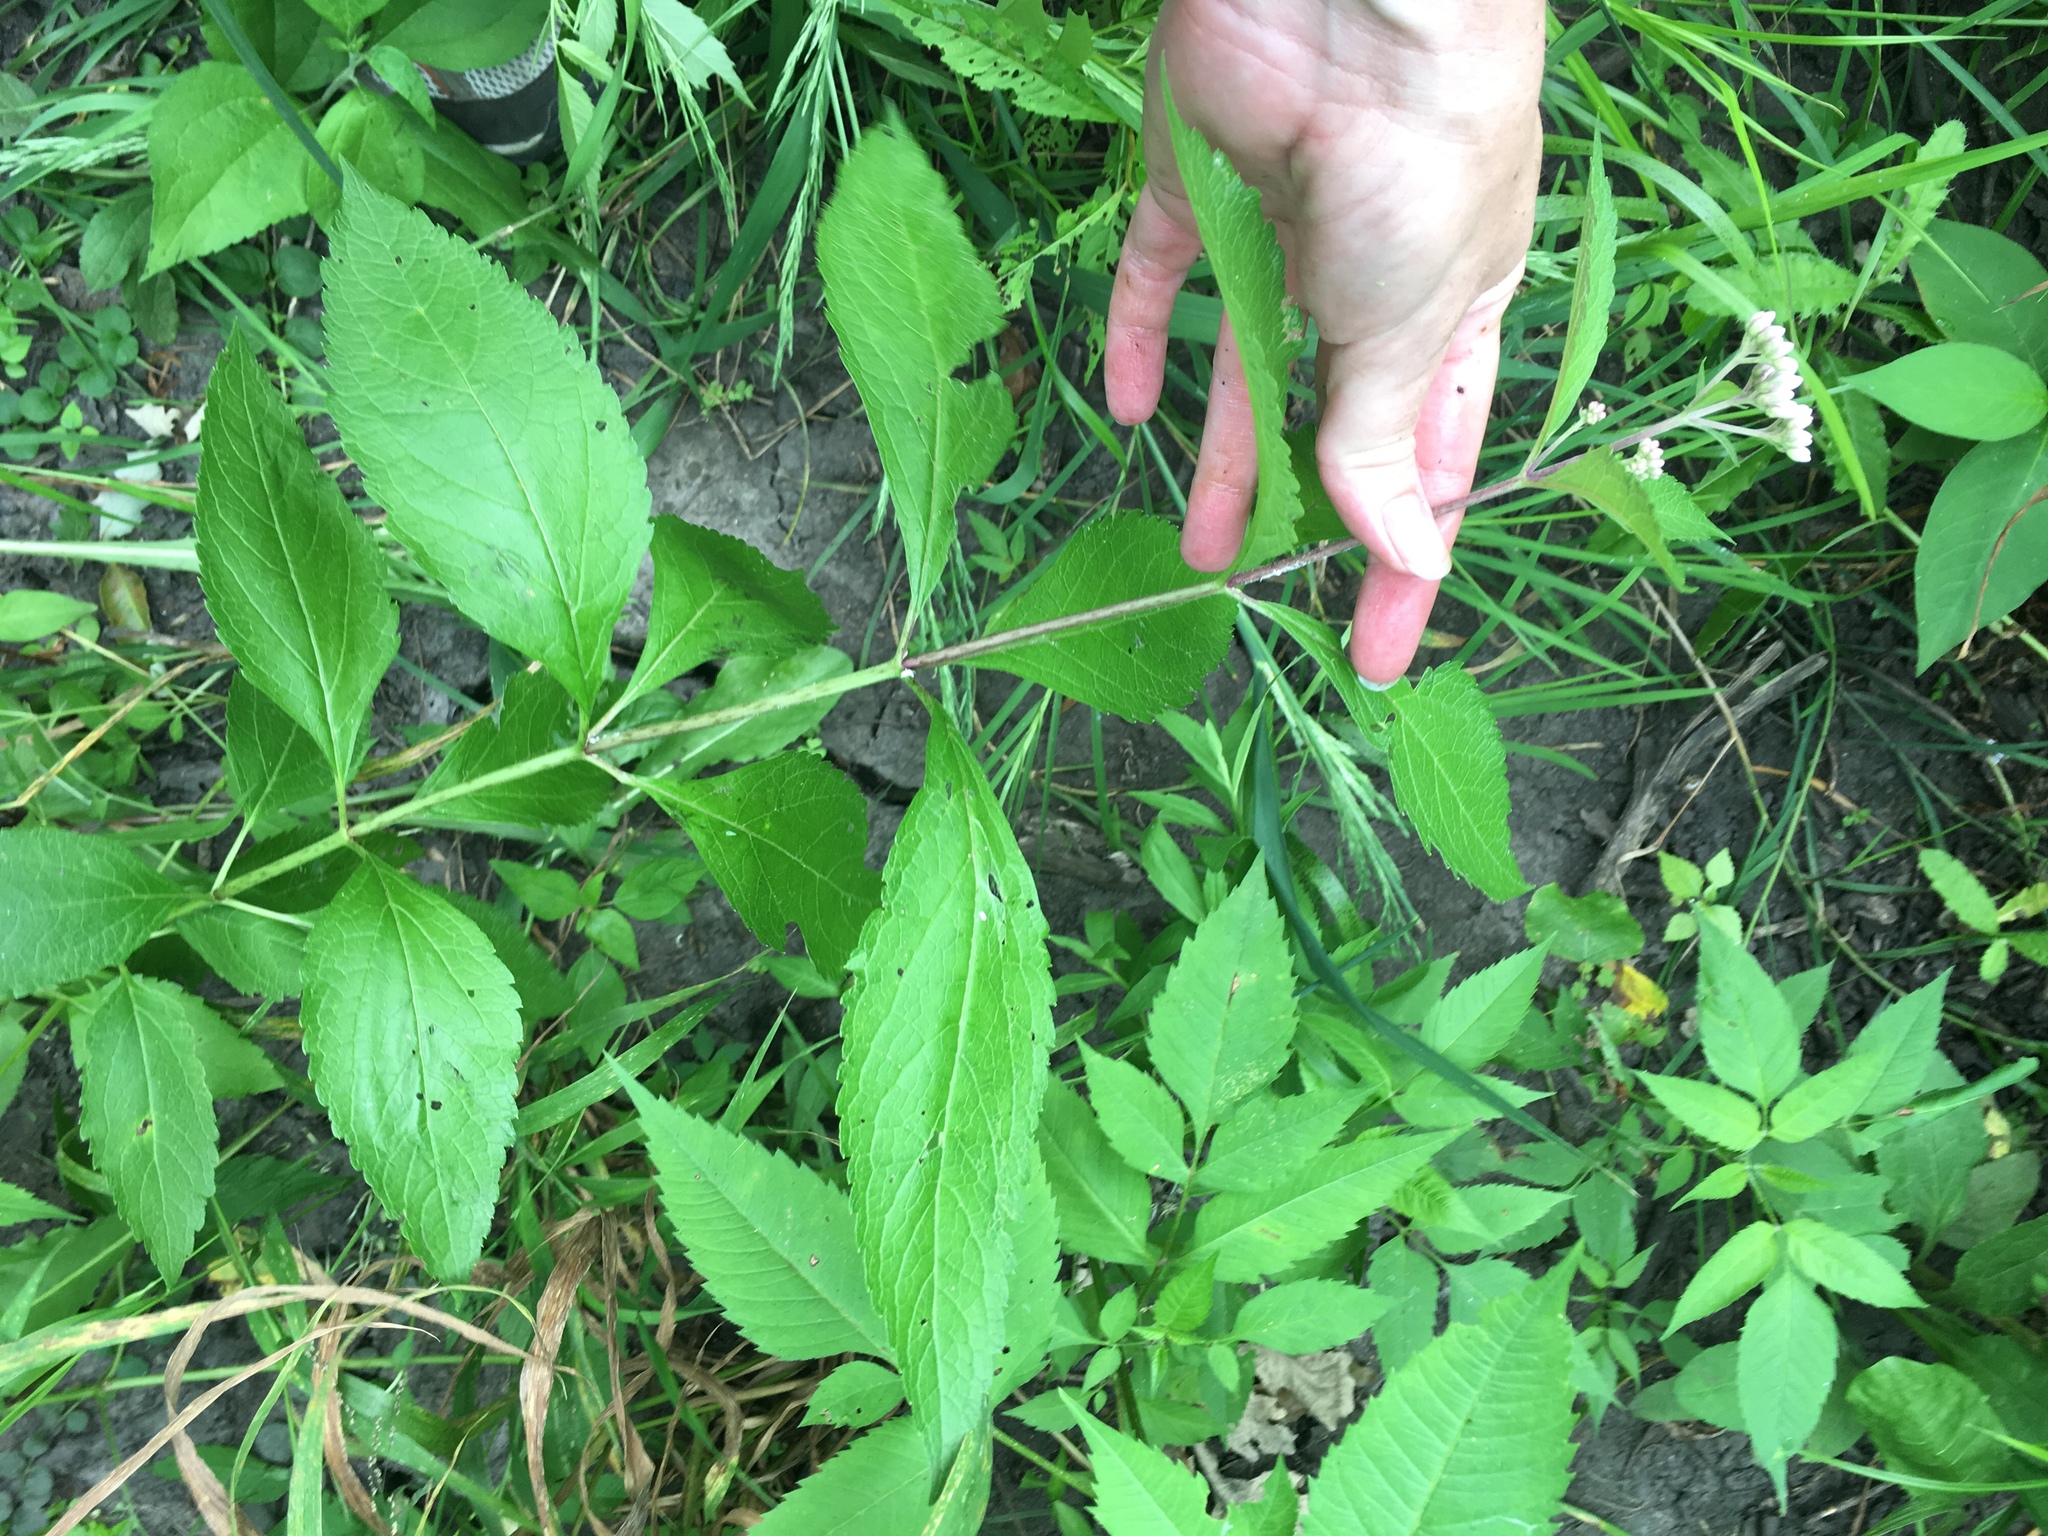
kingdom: Plantae
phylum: Tracheophyta
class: Magnoliopsida
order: Asterales
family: Asteraceae
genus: Eutrochium
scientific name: Eutrochium maculatum
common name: Spotted joe pye weed
